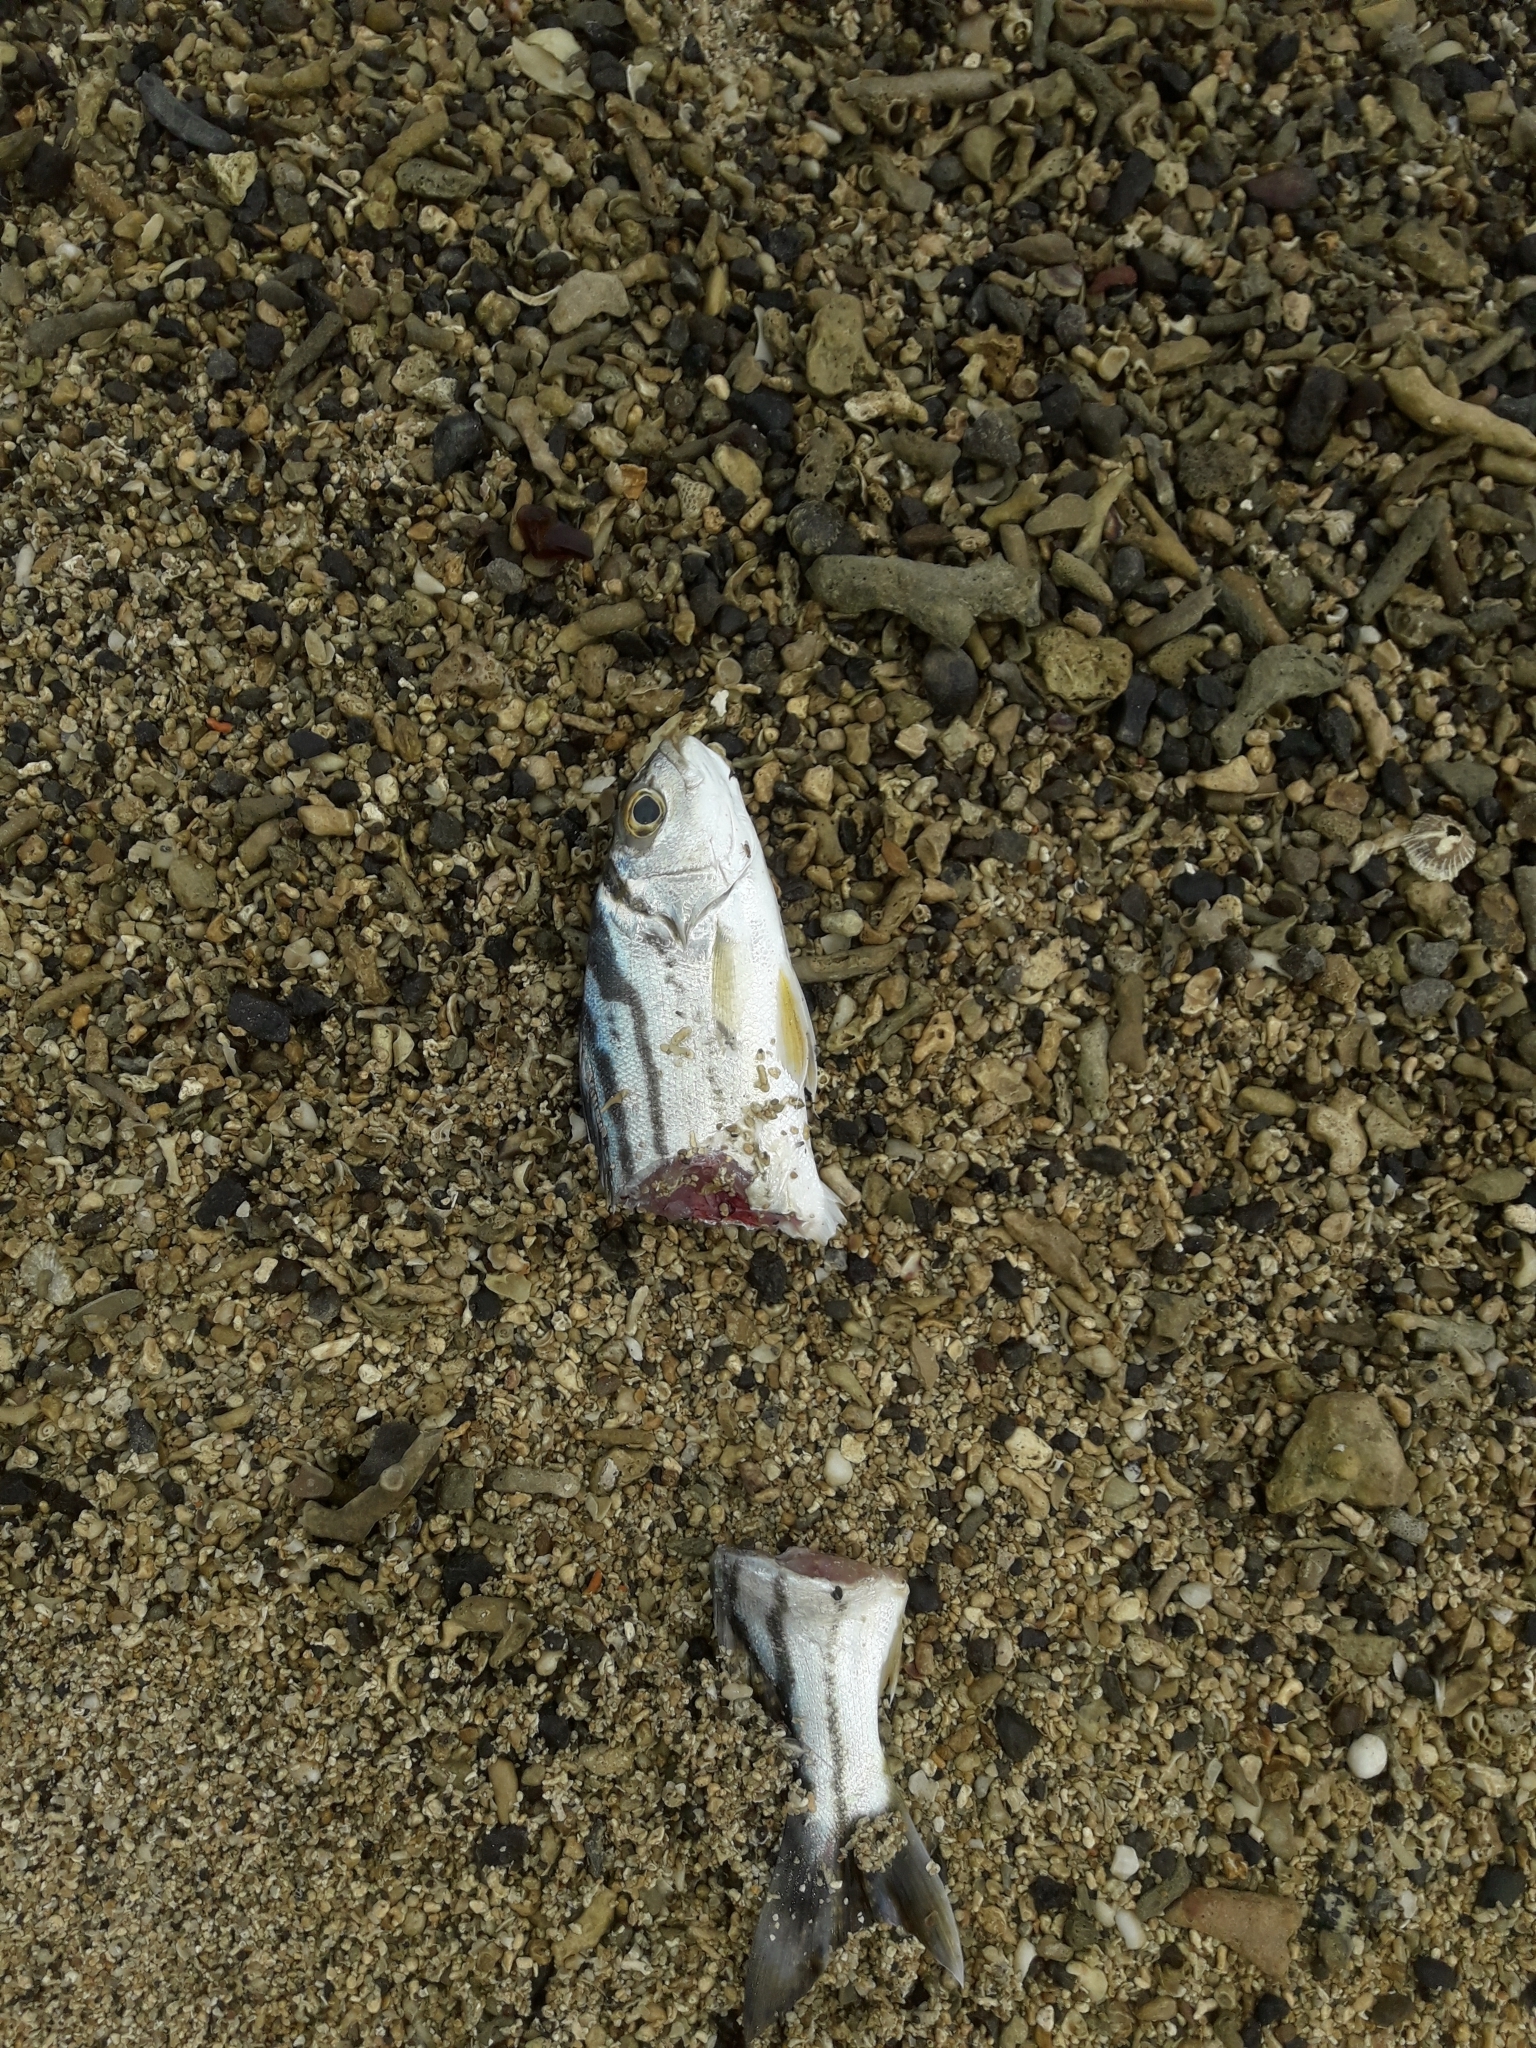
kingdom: Animalia
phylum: Chordata
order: Perciformes
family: Terapontidae
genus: Terapon
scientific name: Terapon jarbua
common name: Jarbua terapon
